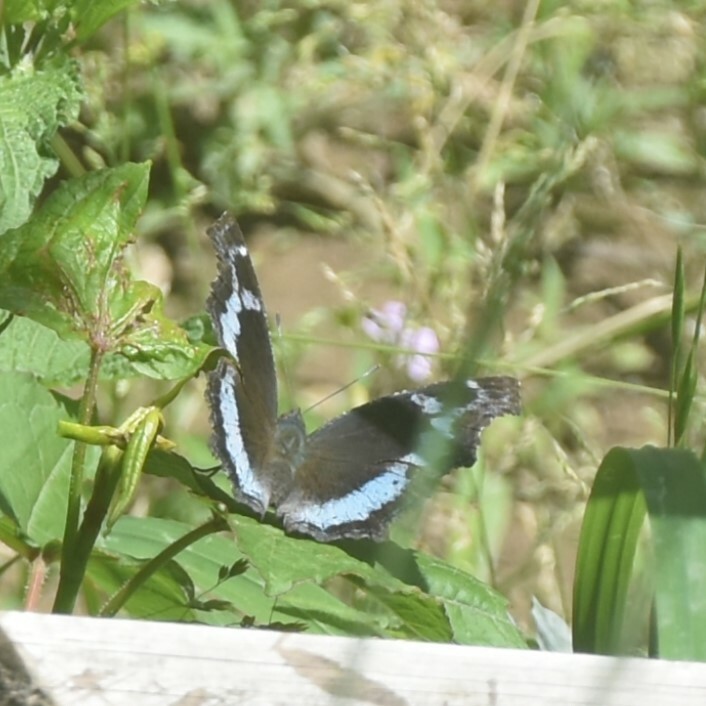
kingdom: Animalia
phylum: Arthropoda
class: Insecta
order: Lepidoptera
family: Nymphalidae
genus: Vanessa
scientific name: Vanessa Kaniska canace
